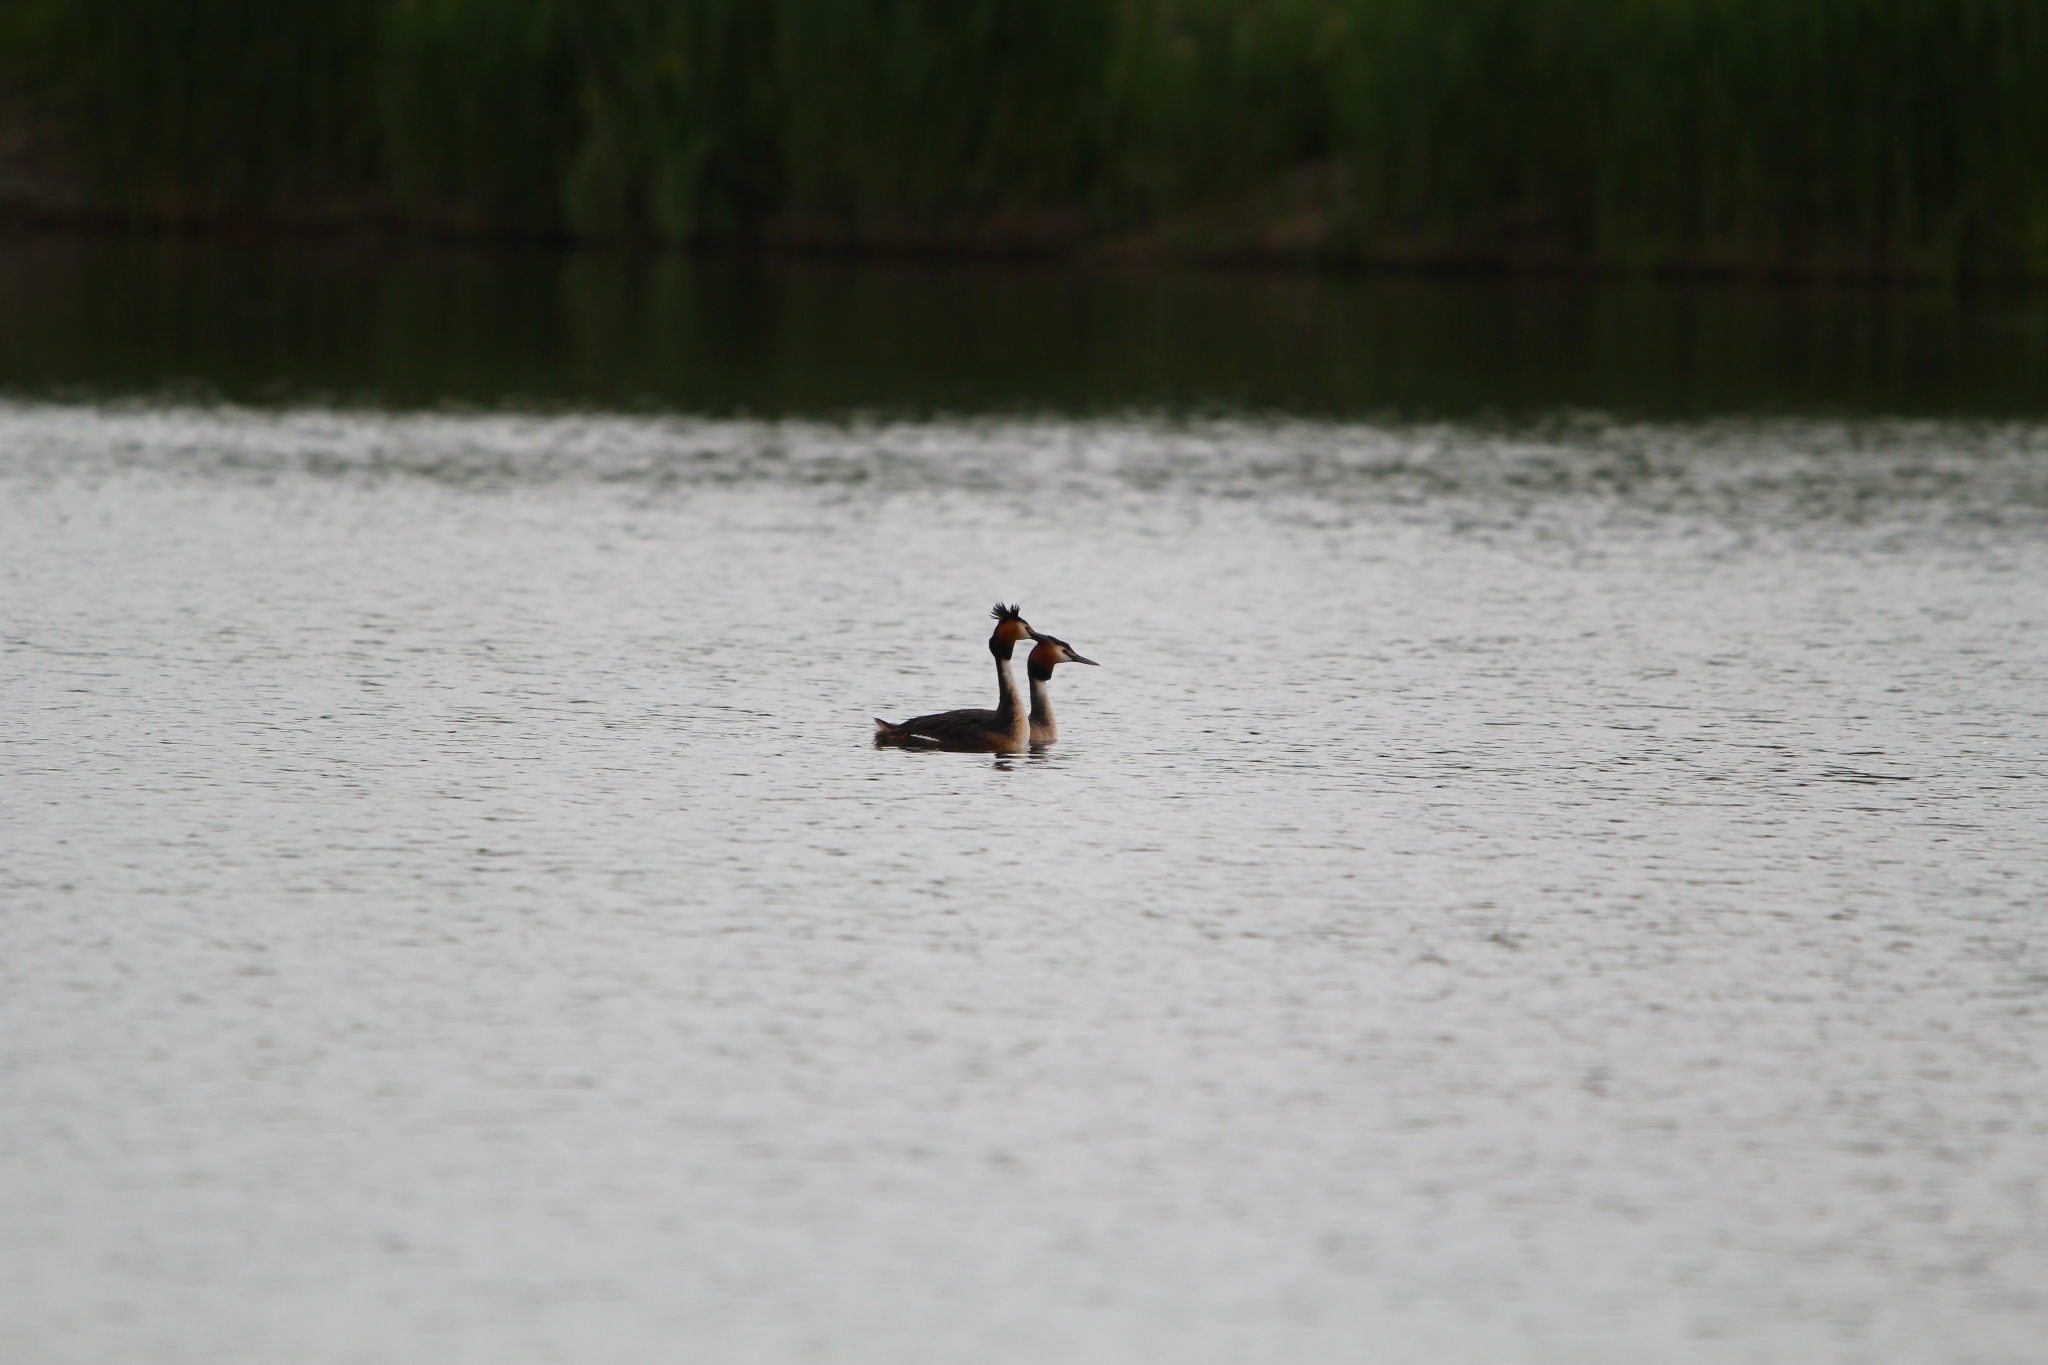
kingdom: Animalia
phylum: Chordata
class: Aves
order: Podicipediformes
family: Podicipedidae
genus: Podiceps
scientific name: Podiceps cristatus
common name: Great crested grebe
